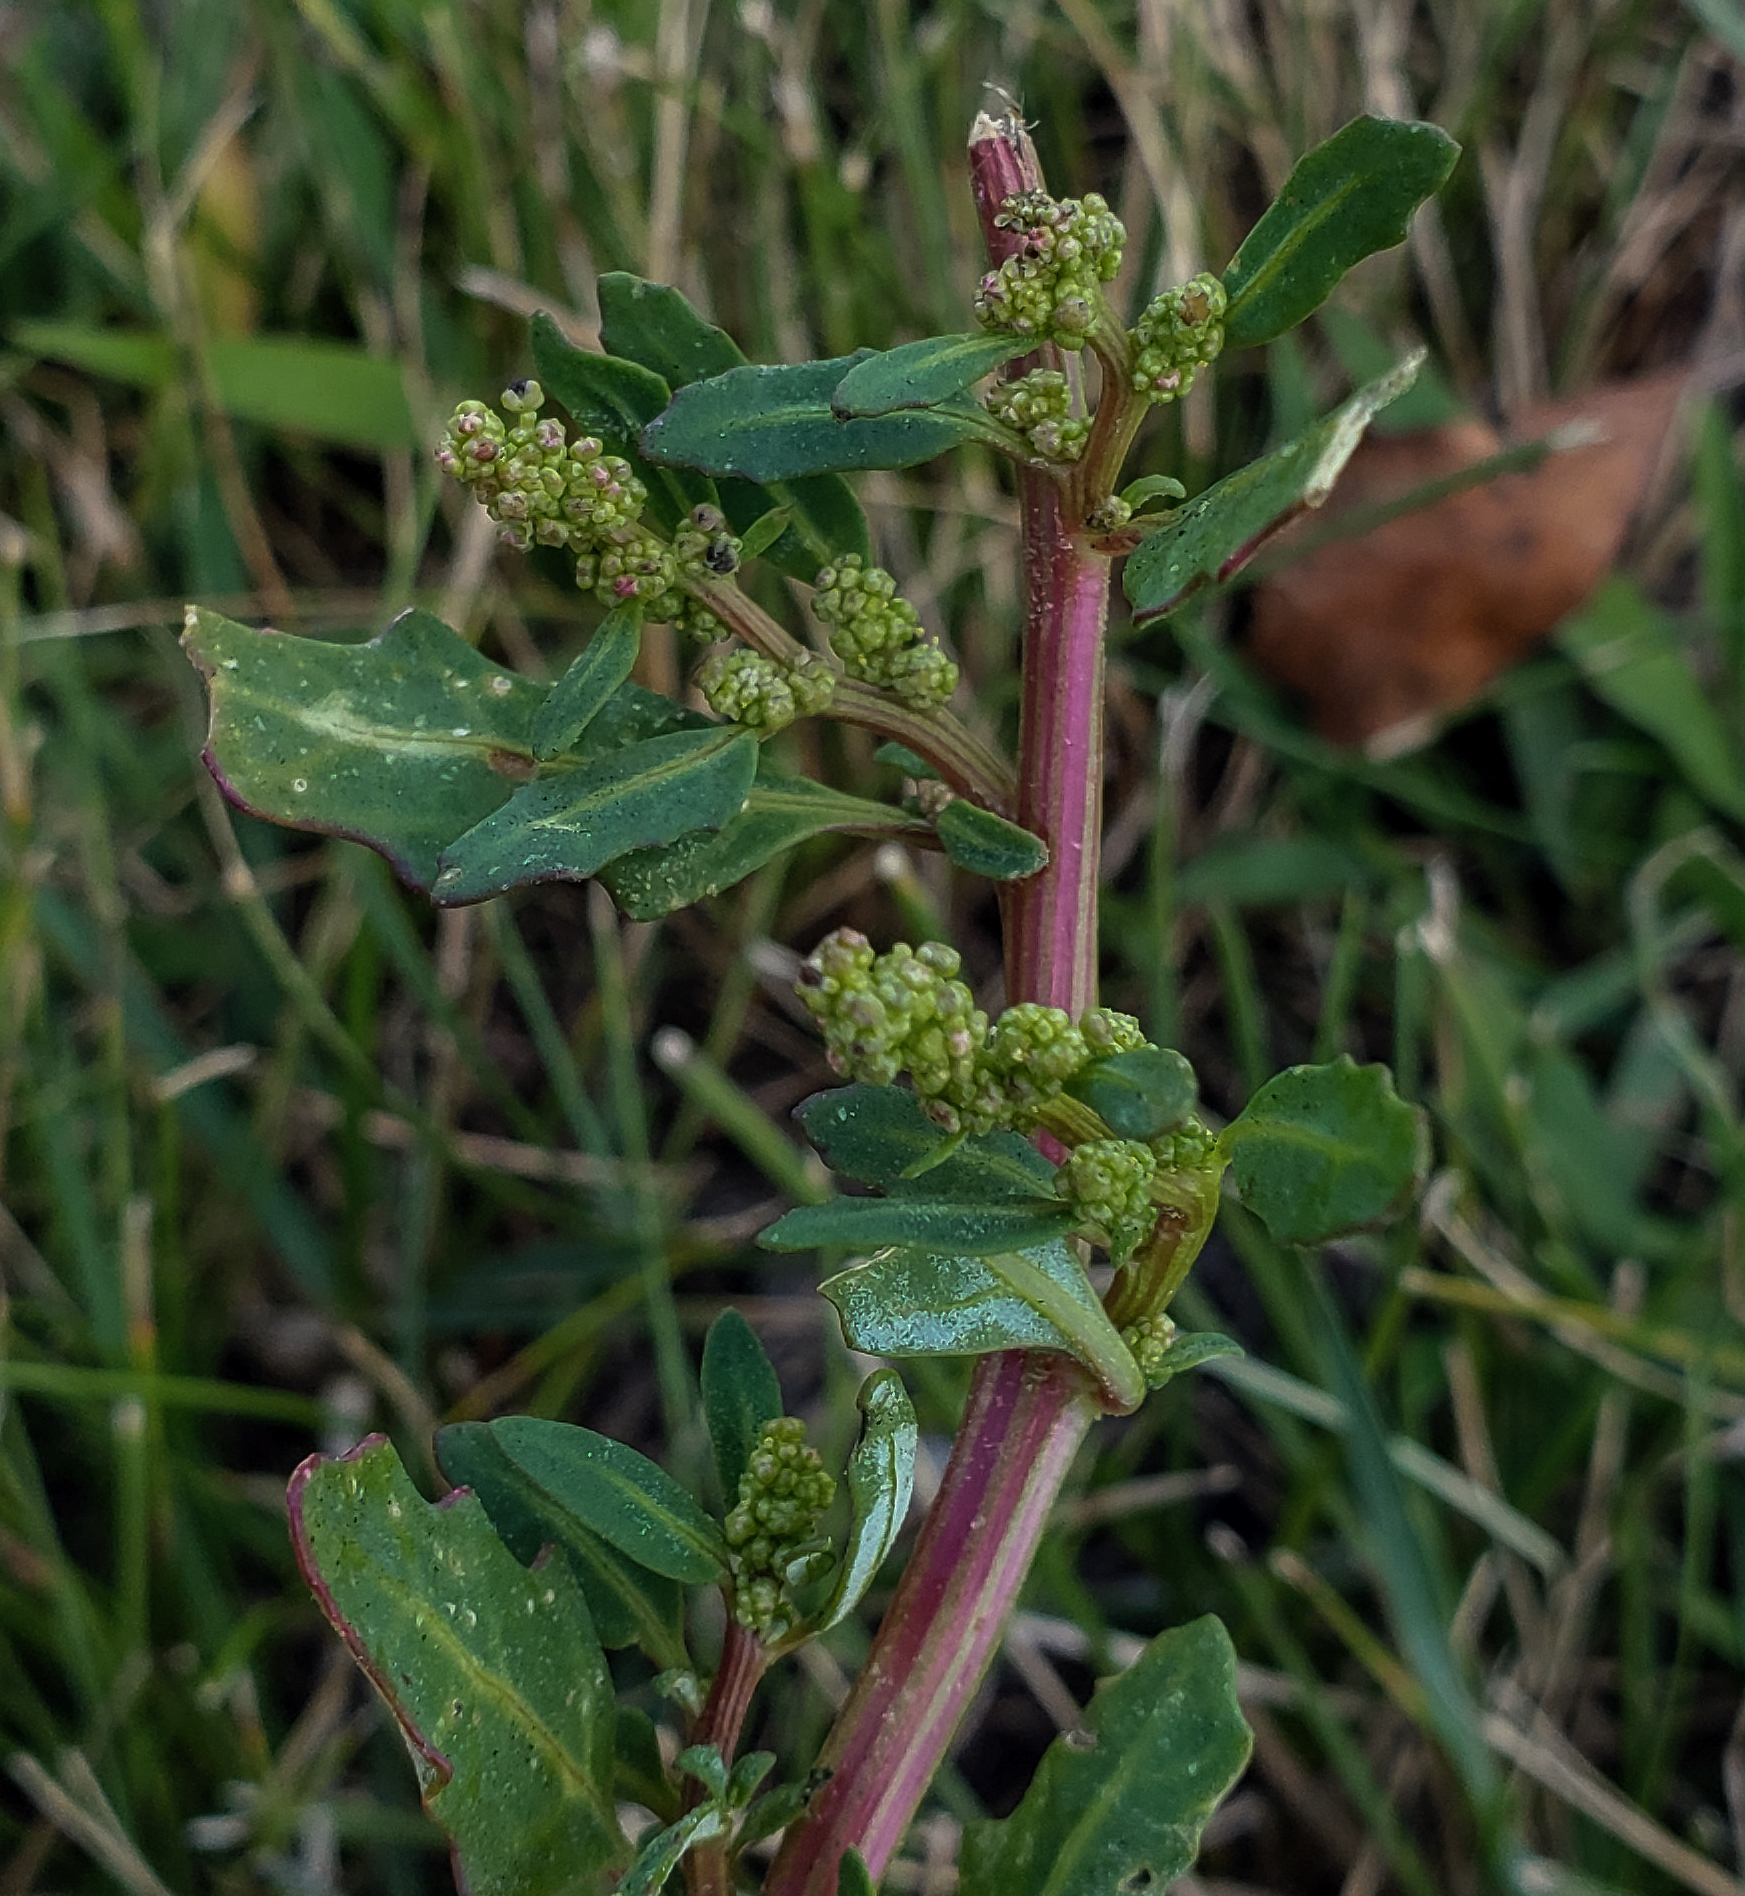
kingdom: Plantae
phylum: Tracheophyta
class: Magnoliopsida
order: Caryophyllales
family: Amaranthaceae
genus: Oxybasis
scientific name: Oxybasis glauca
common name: Glaucous goosefoot
